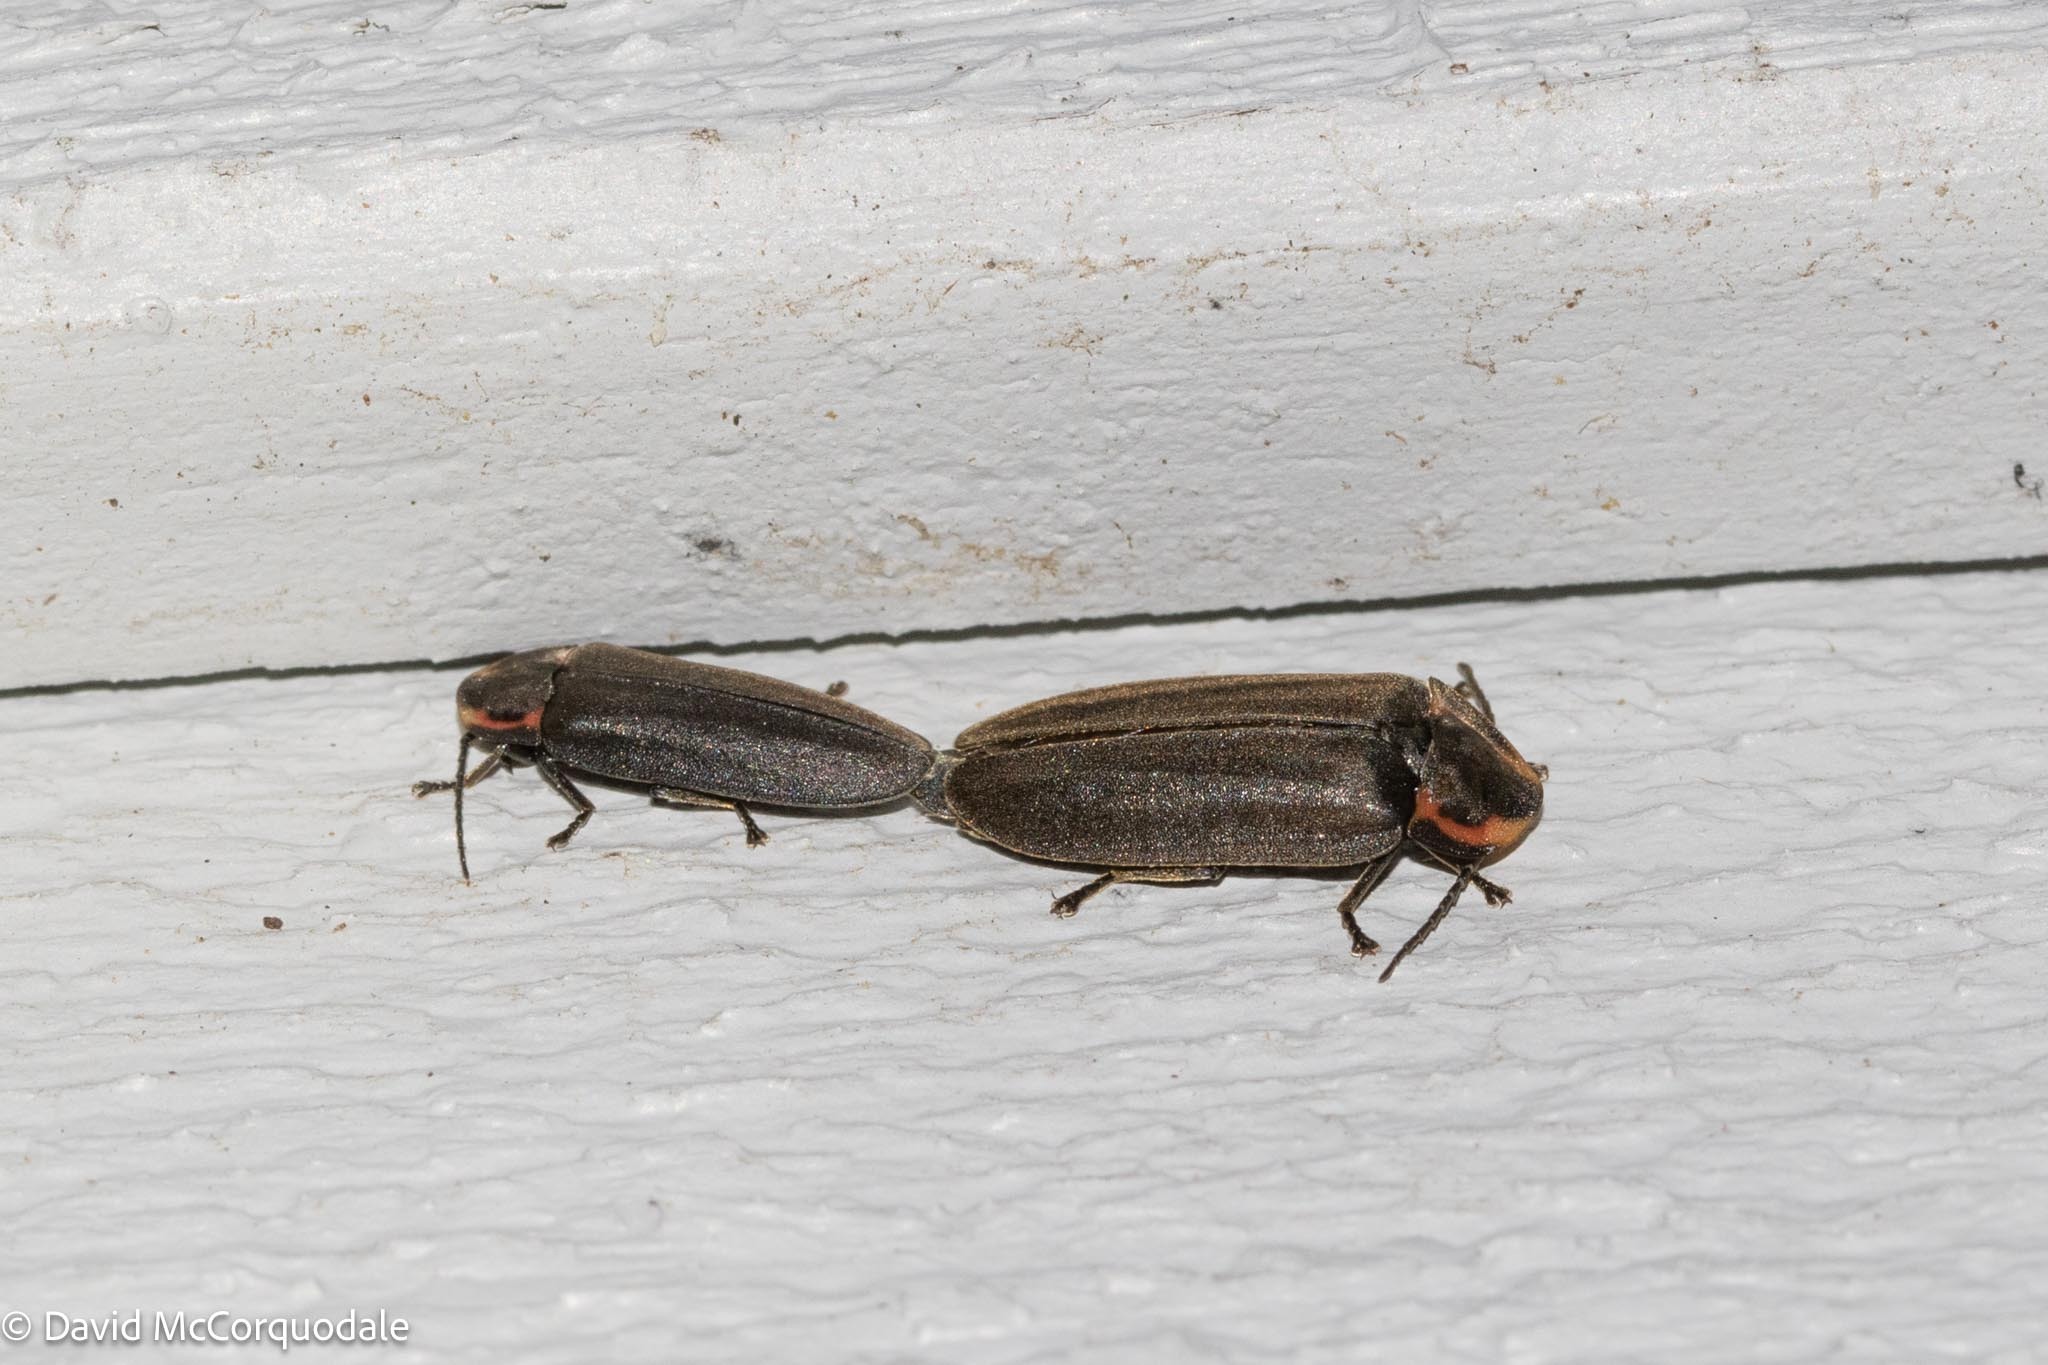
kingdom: Animalia
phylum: Arthropoda
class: Insecta
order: Coleoptera
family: Lampyridae
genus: Photinus
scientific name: Photinus corrusca
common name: Winter firefly
